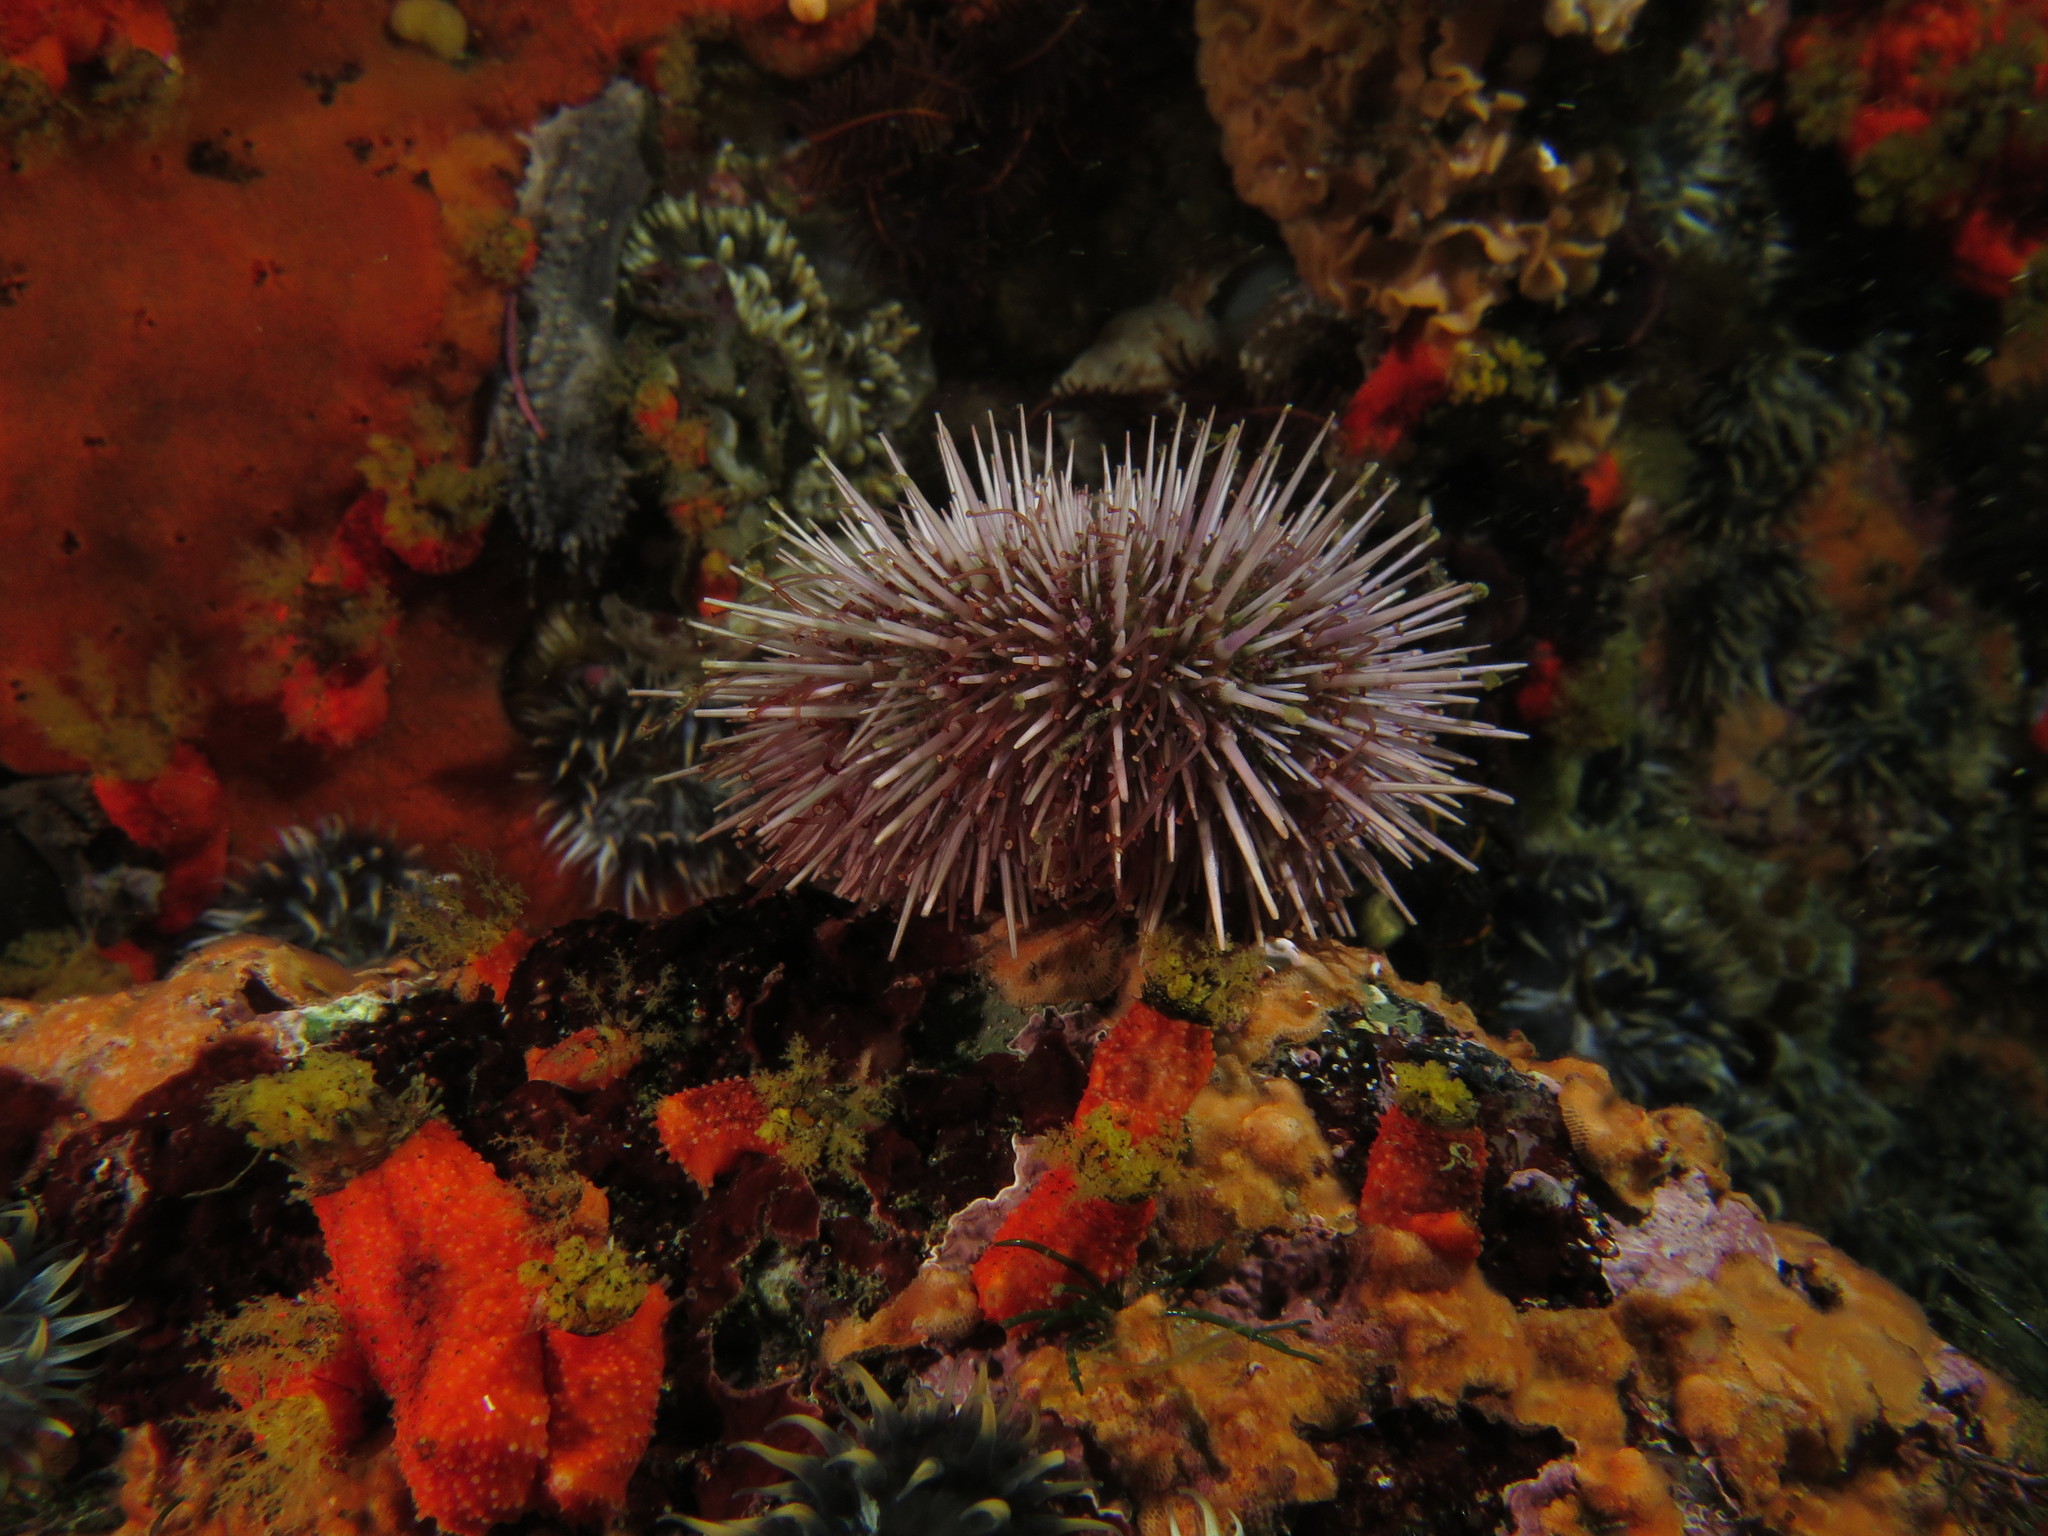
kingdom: Animalia
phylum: Echinodermata
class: Echinoidea
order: Camarodonta
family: Parechinidae
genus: Parechinus
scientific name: Parechinus angulosus
